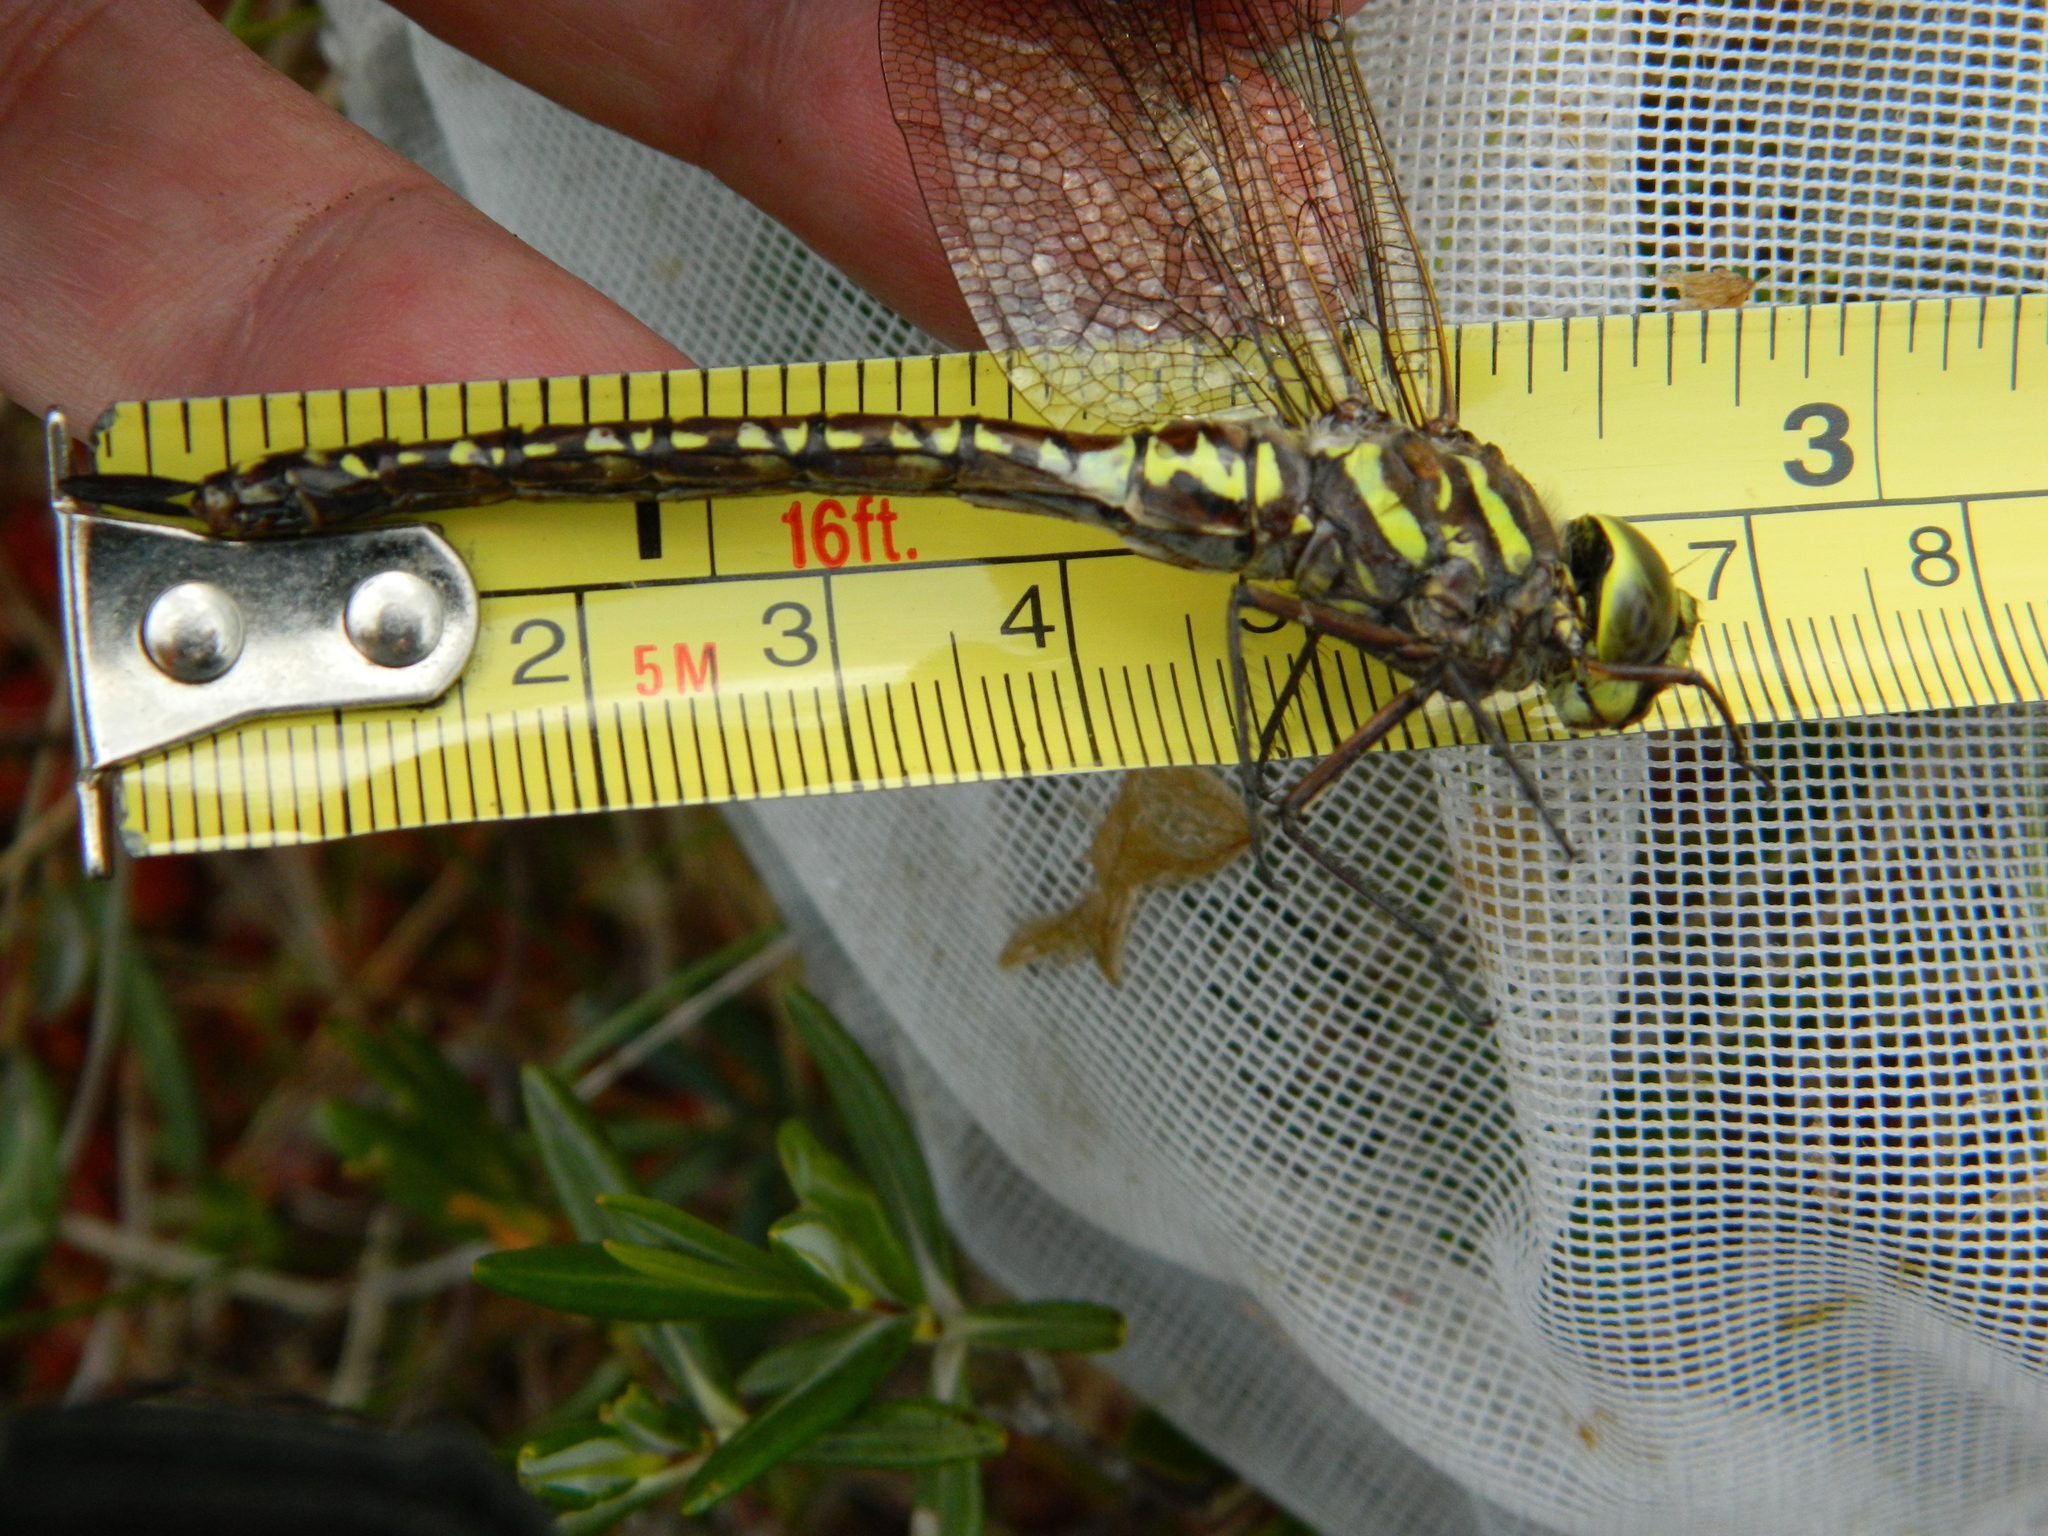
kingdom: Animalia
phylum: Arthropoda
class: Insecta
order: Odonata
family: Aeshnidae
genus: Aeshna
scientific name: Aeshna subarctica
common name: Subarctic darner
